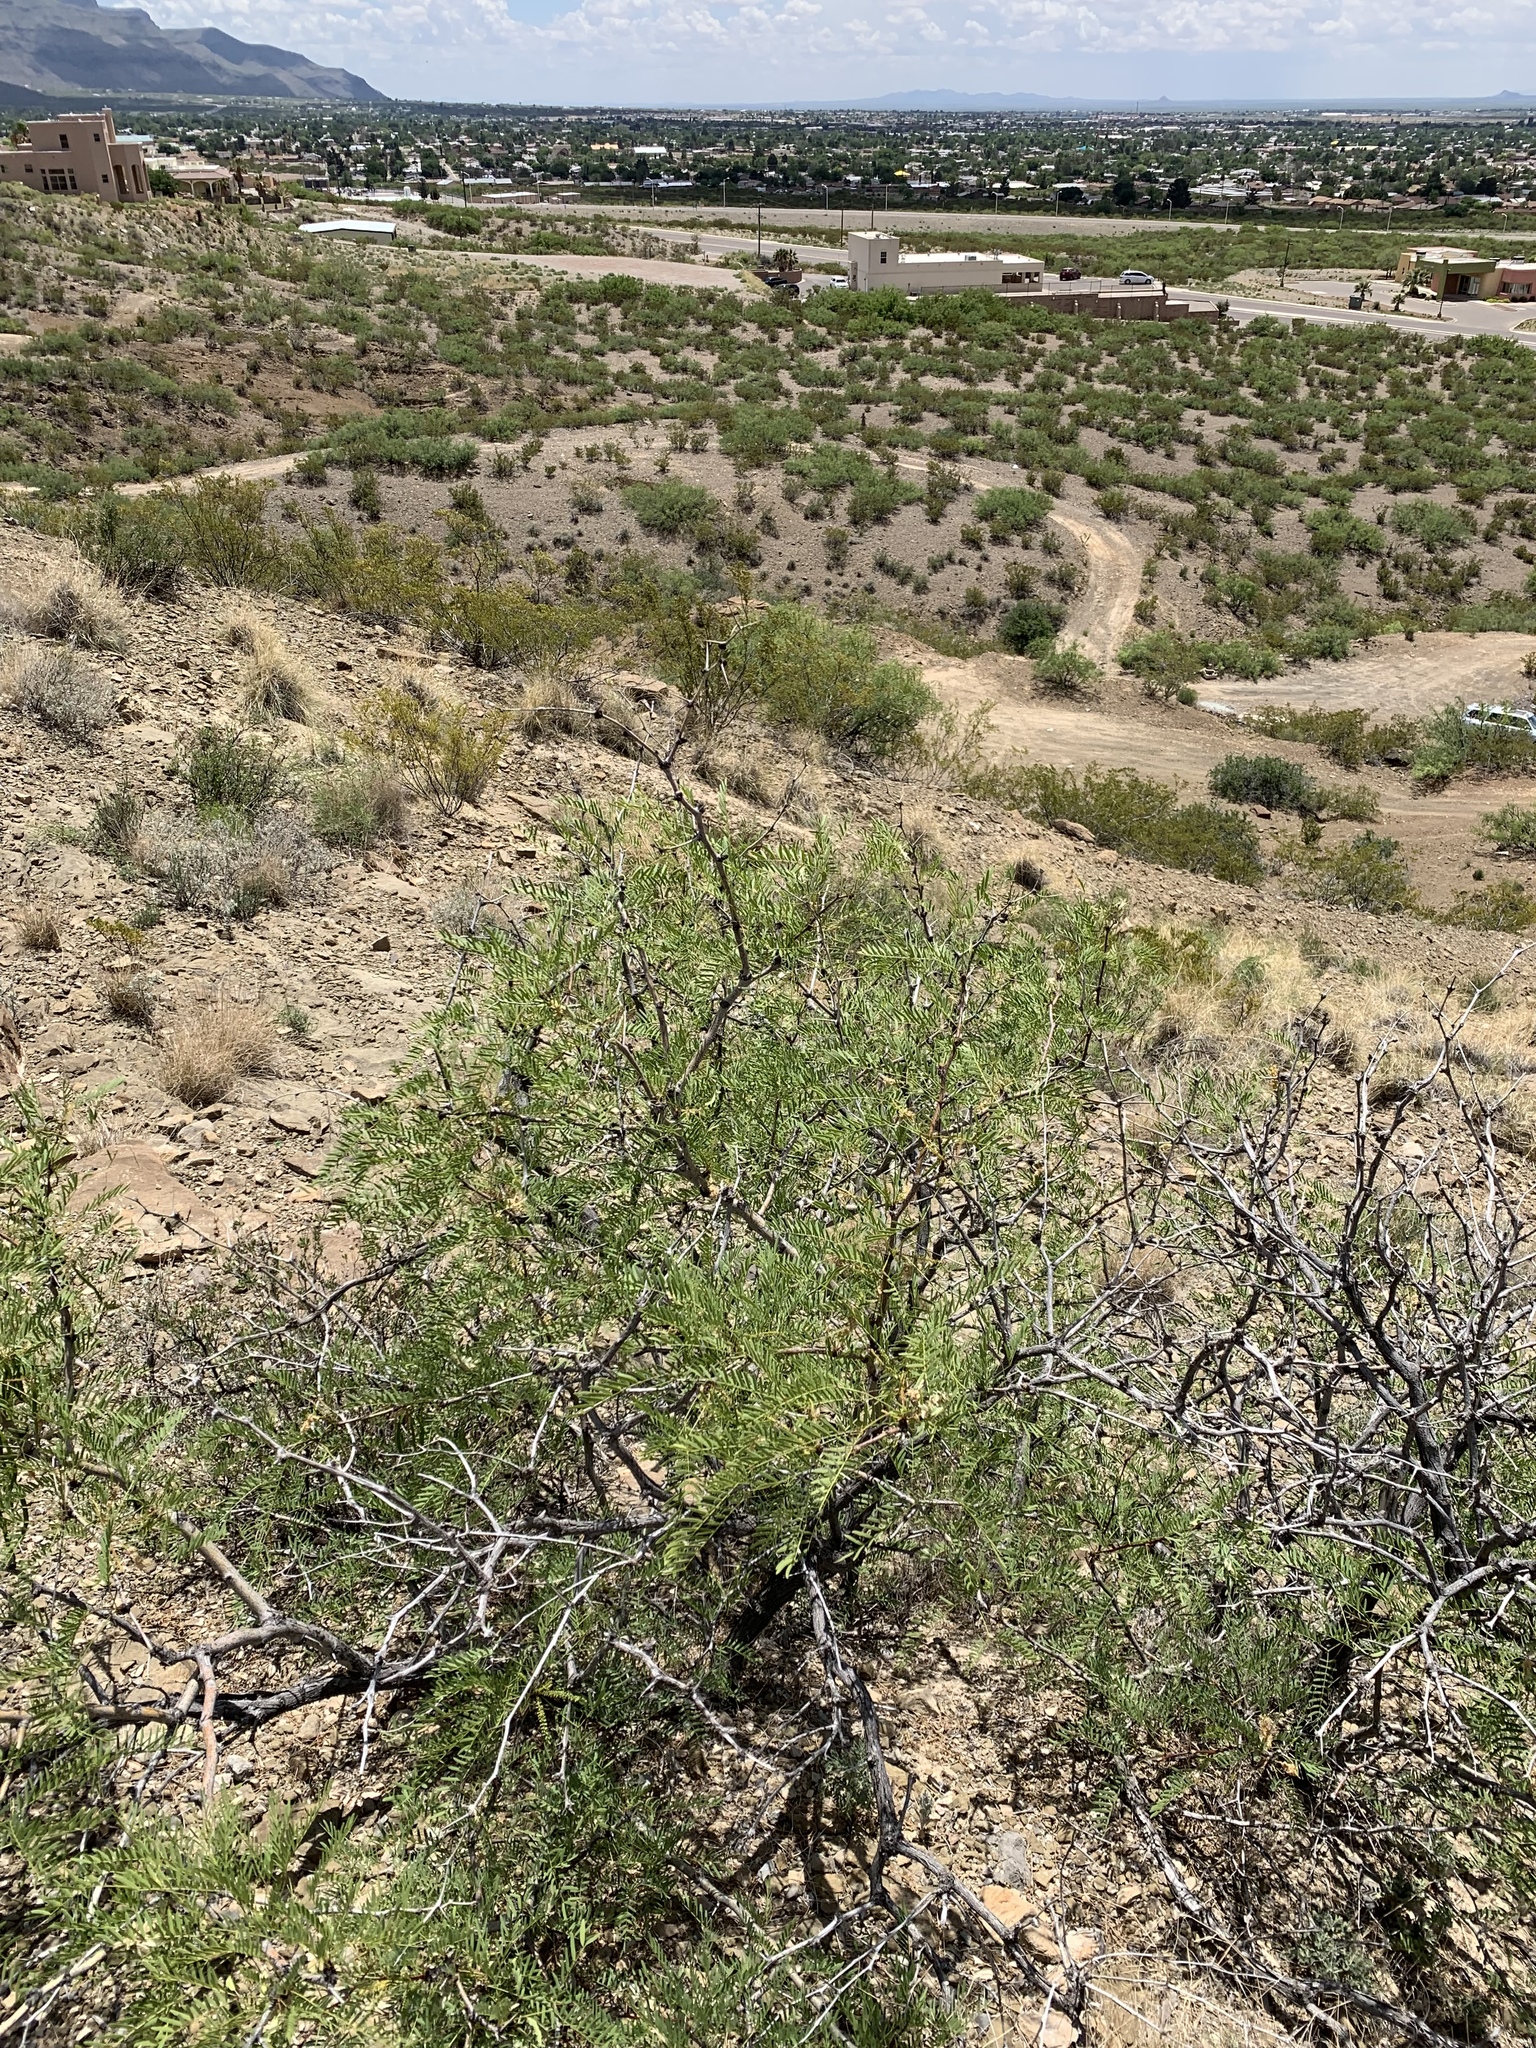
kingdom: Plantae
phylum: Tracheophyta
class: Magnoliopsida
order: Fabales
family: Fabaceae
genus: Prosopis
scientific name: Prosopis glandulosa
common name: Honey mesquite
